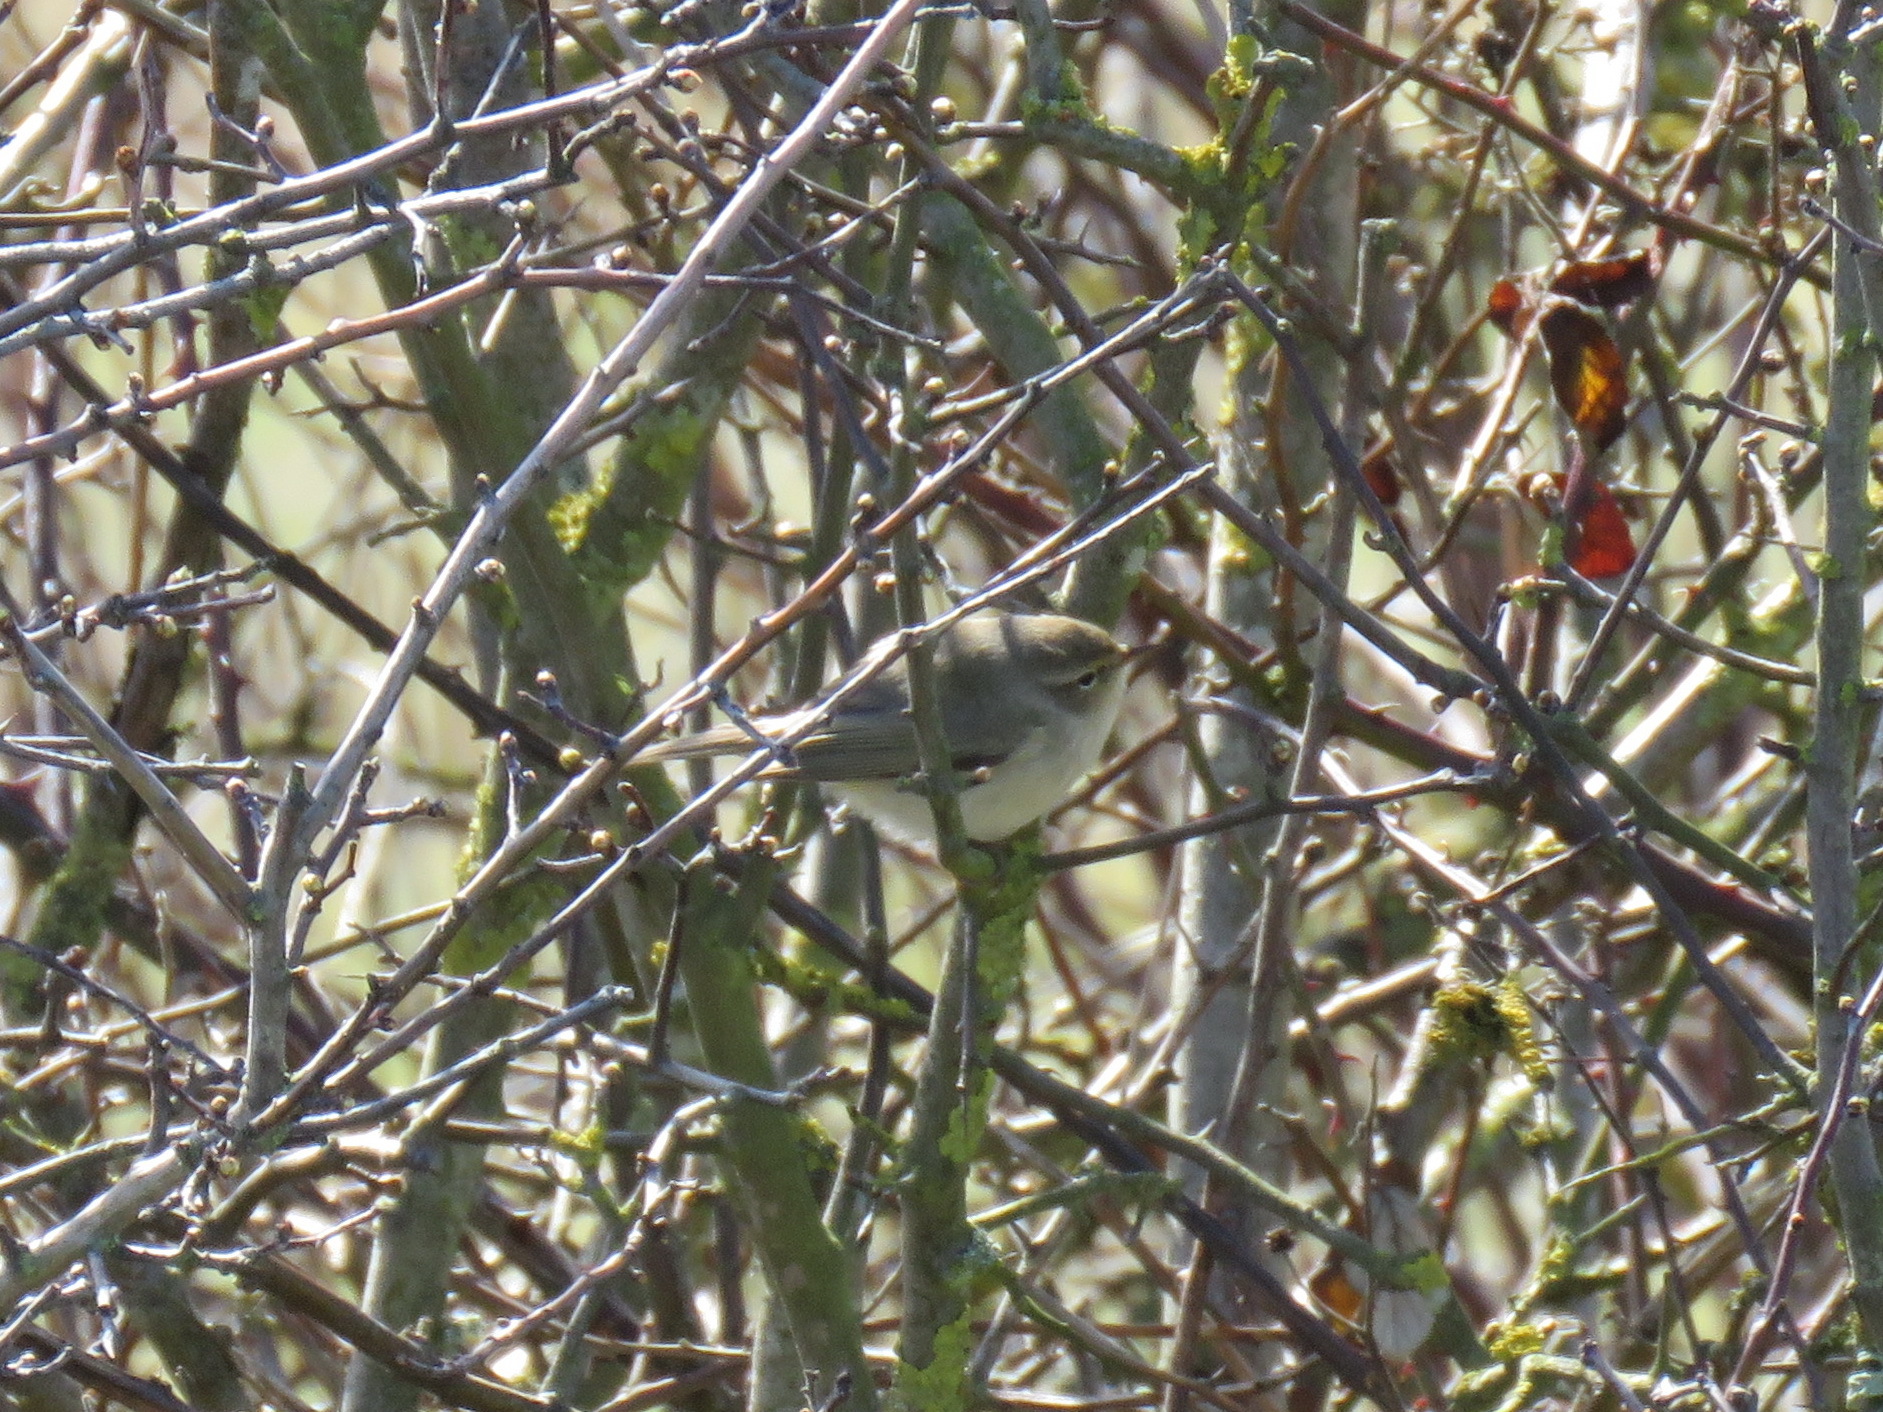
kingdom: Animalia
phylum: Chordata
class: Aves
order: Passeriformes
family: Phylloscopidae
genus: Phylloscopus
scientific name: Phylloscopus collybita
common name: Common chiffchaff
